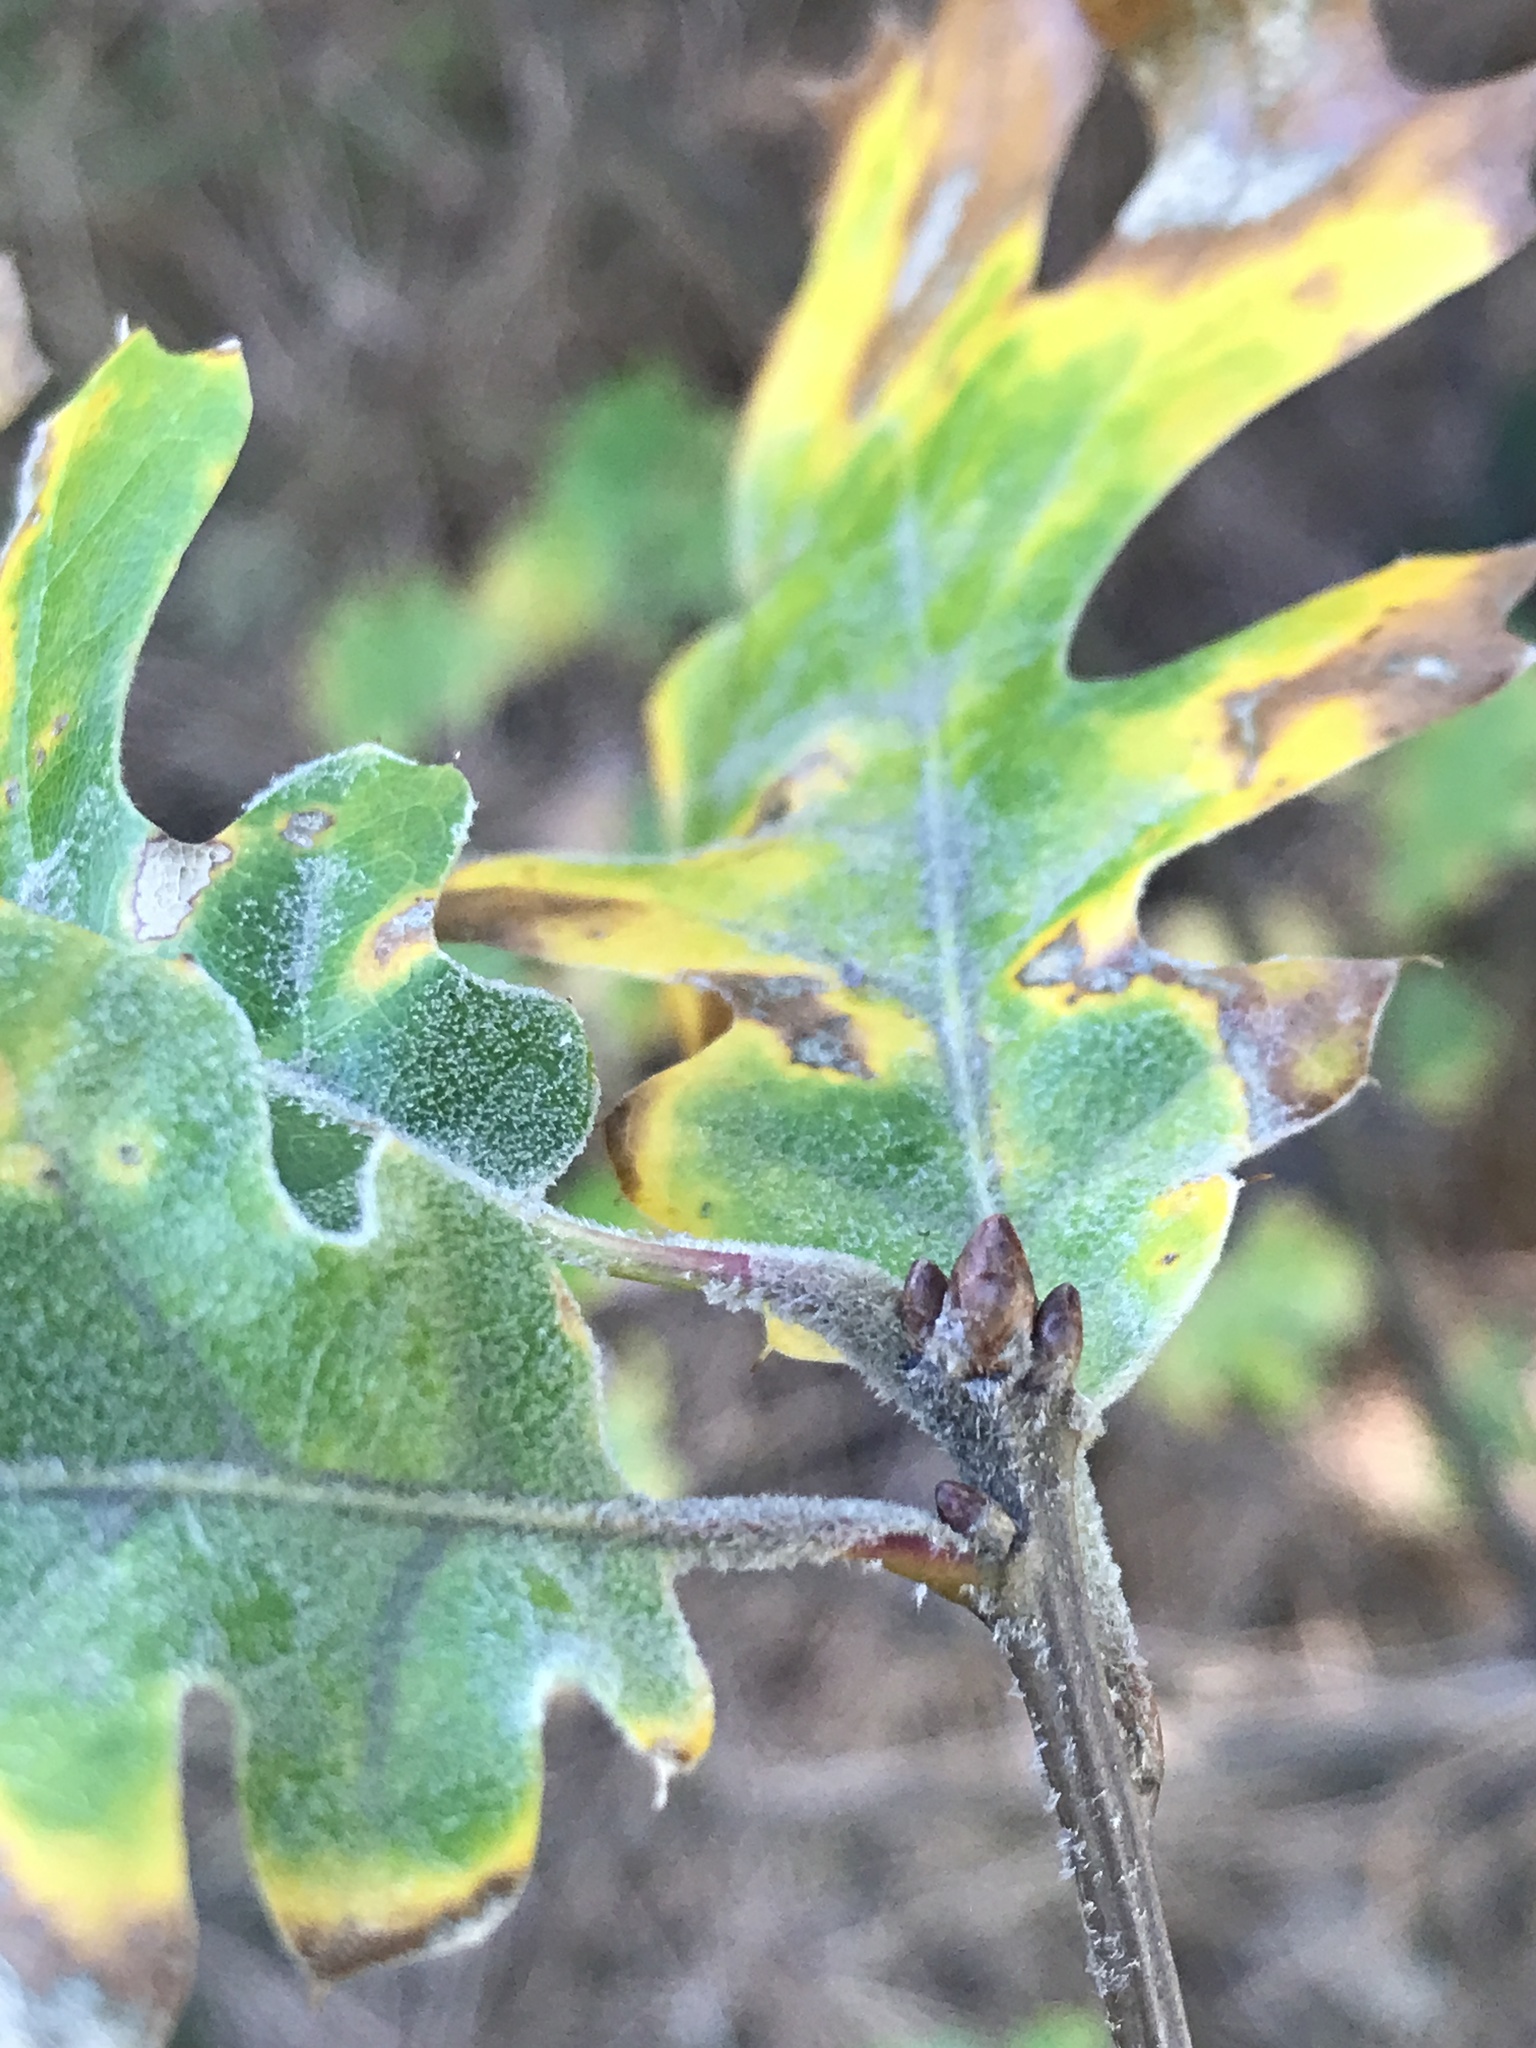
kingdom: Plantae
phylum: Tracheophyta
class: Magnoliopsida
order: Fagales
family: Fagaceae
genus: Quercus
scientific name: Quercus kelloggii
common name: California black oak
